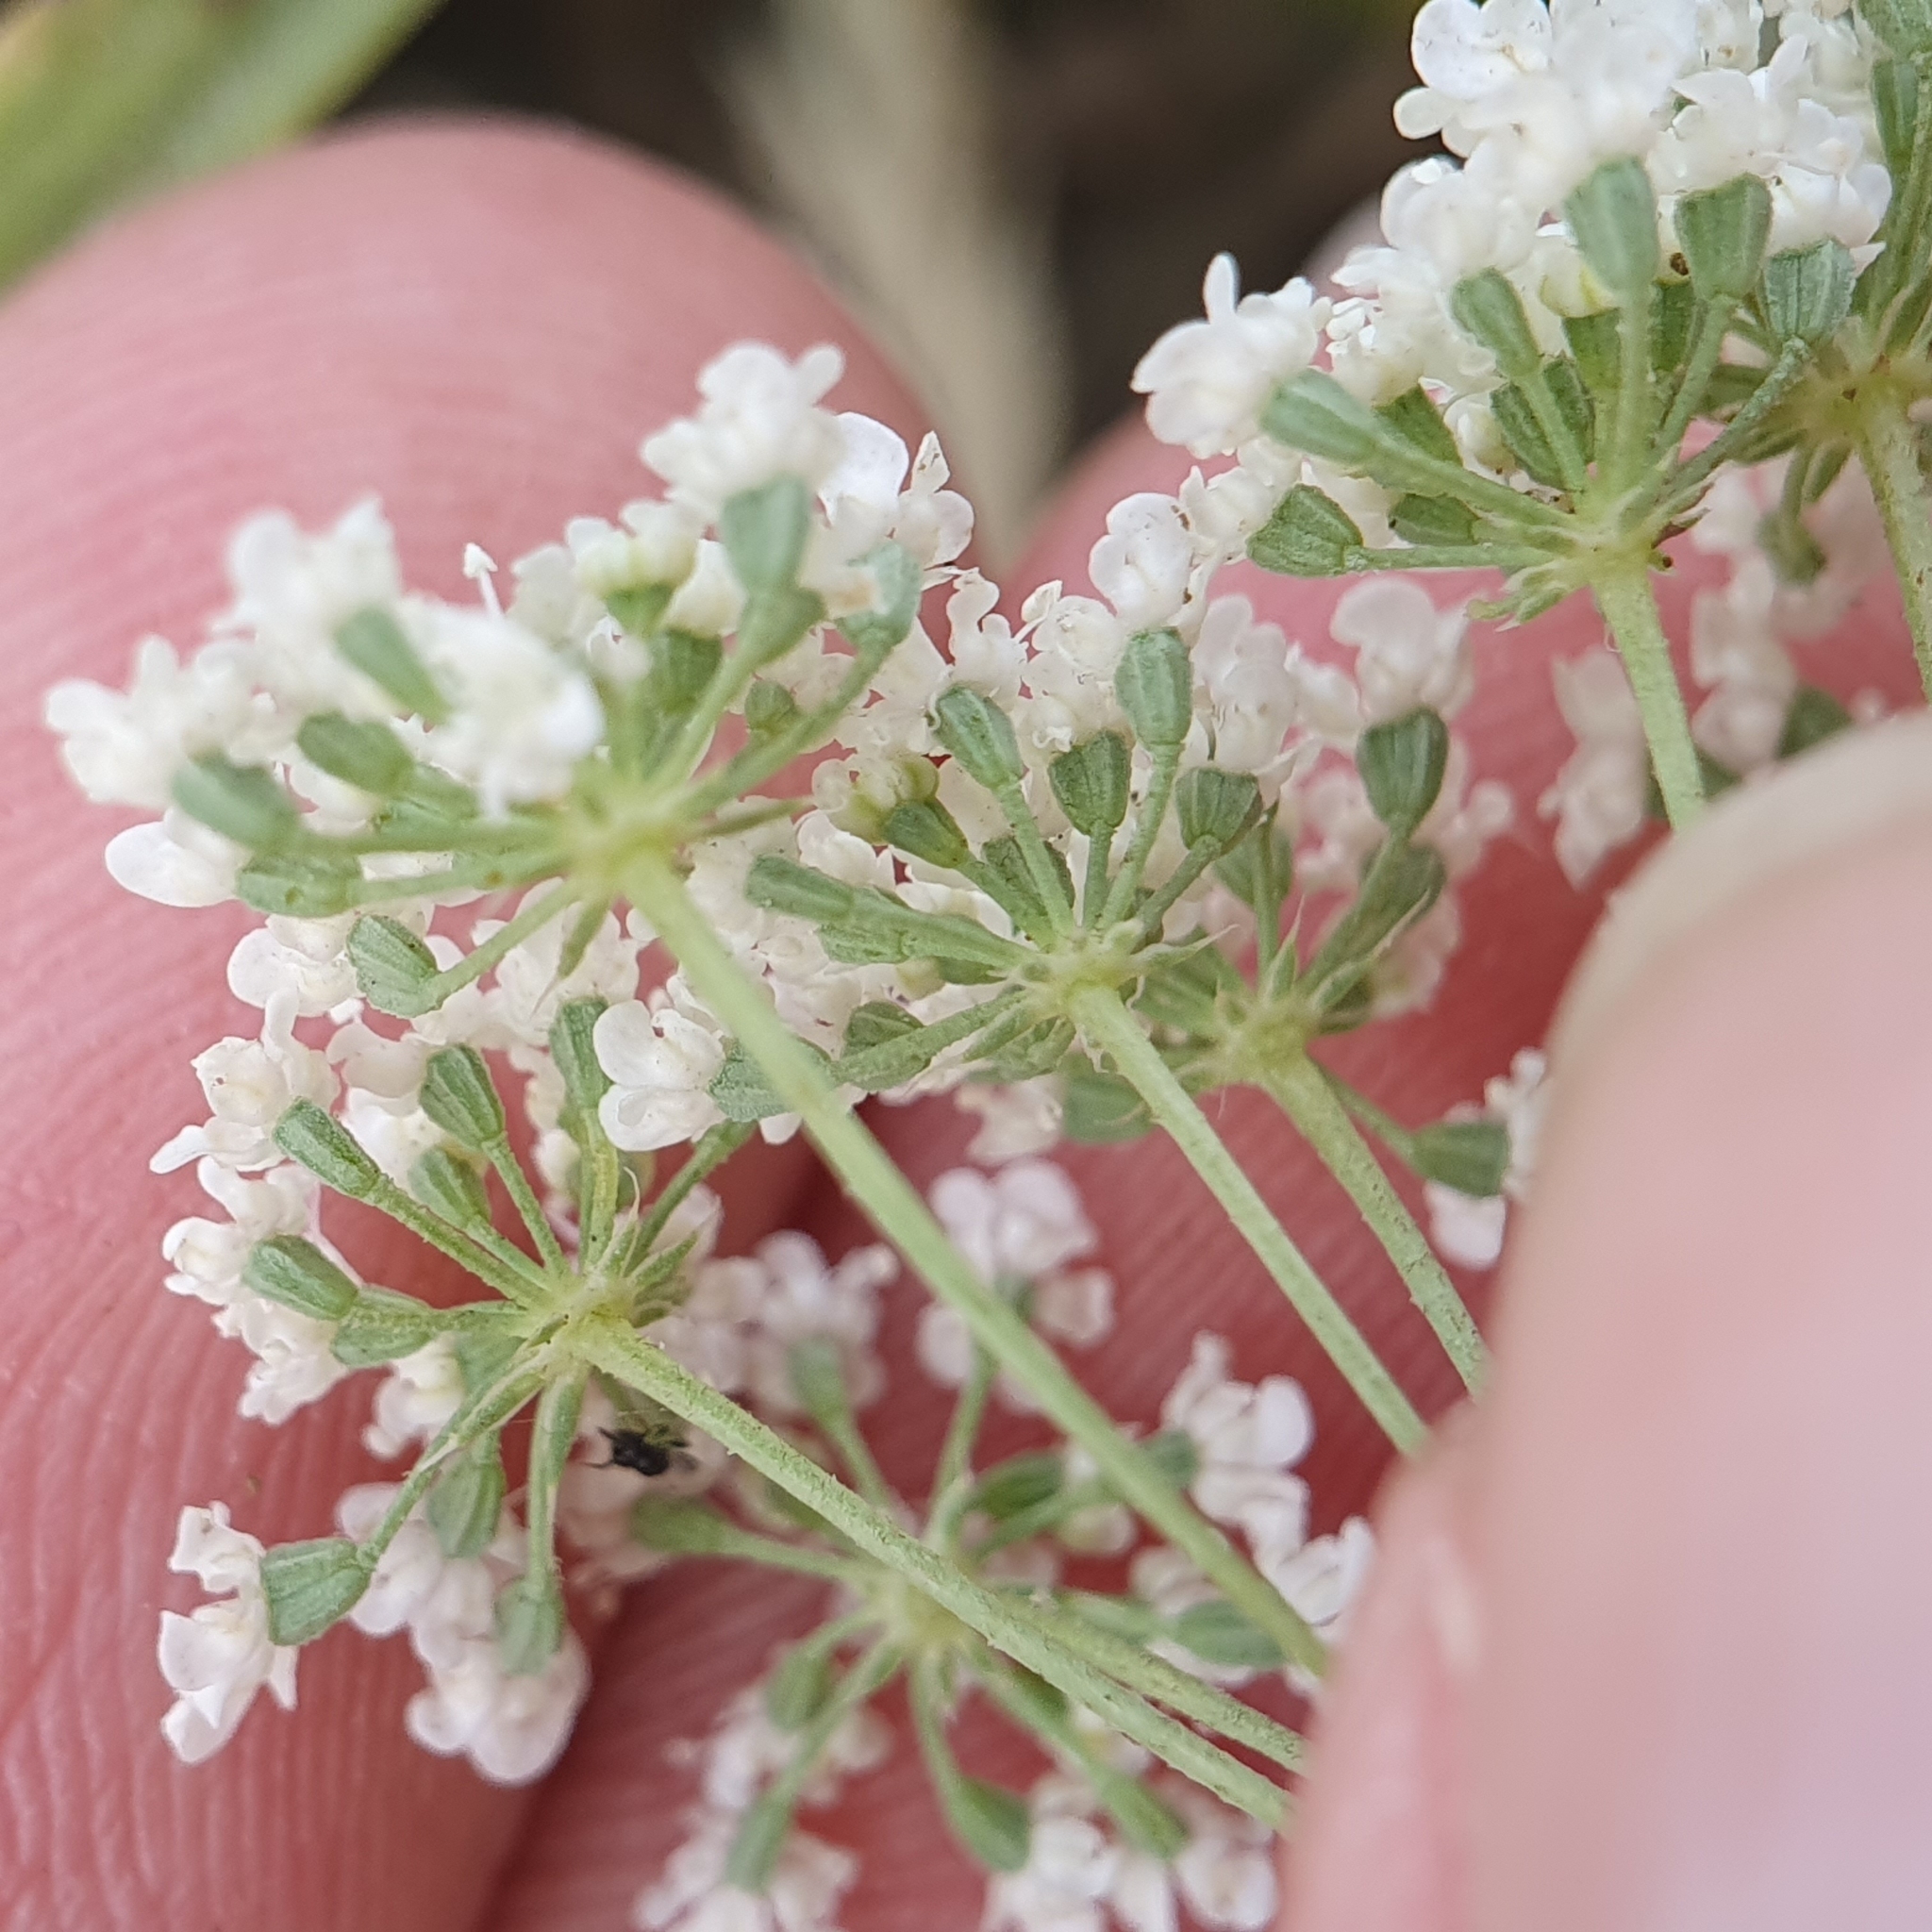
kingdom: Plantae
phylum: Tracheophyta
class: Magnoliopsida
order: Apiales
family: Apiaceae
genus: Ammi
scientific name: Ammi majus
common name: Bullwort
